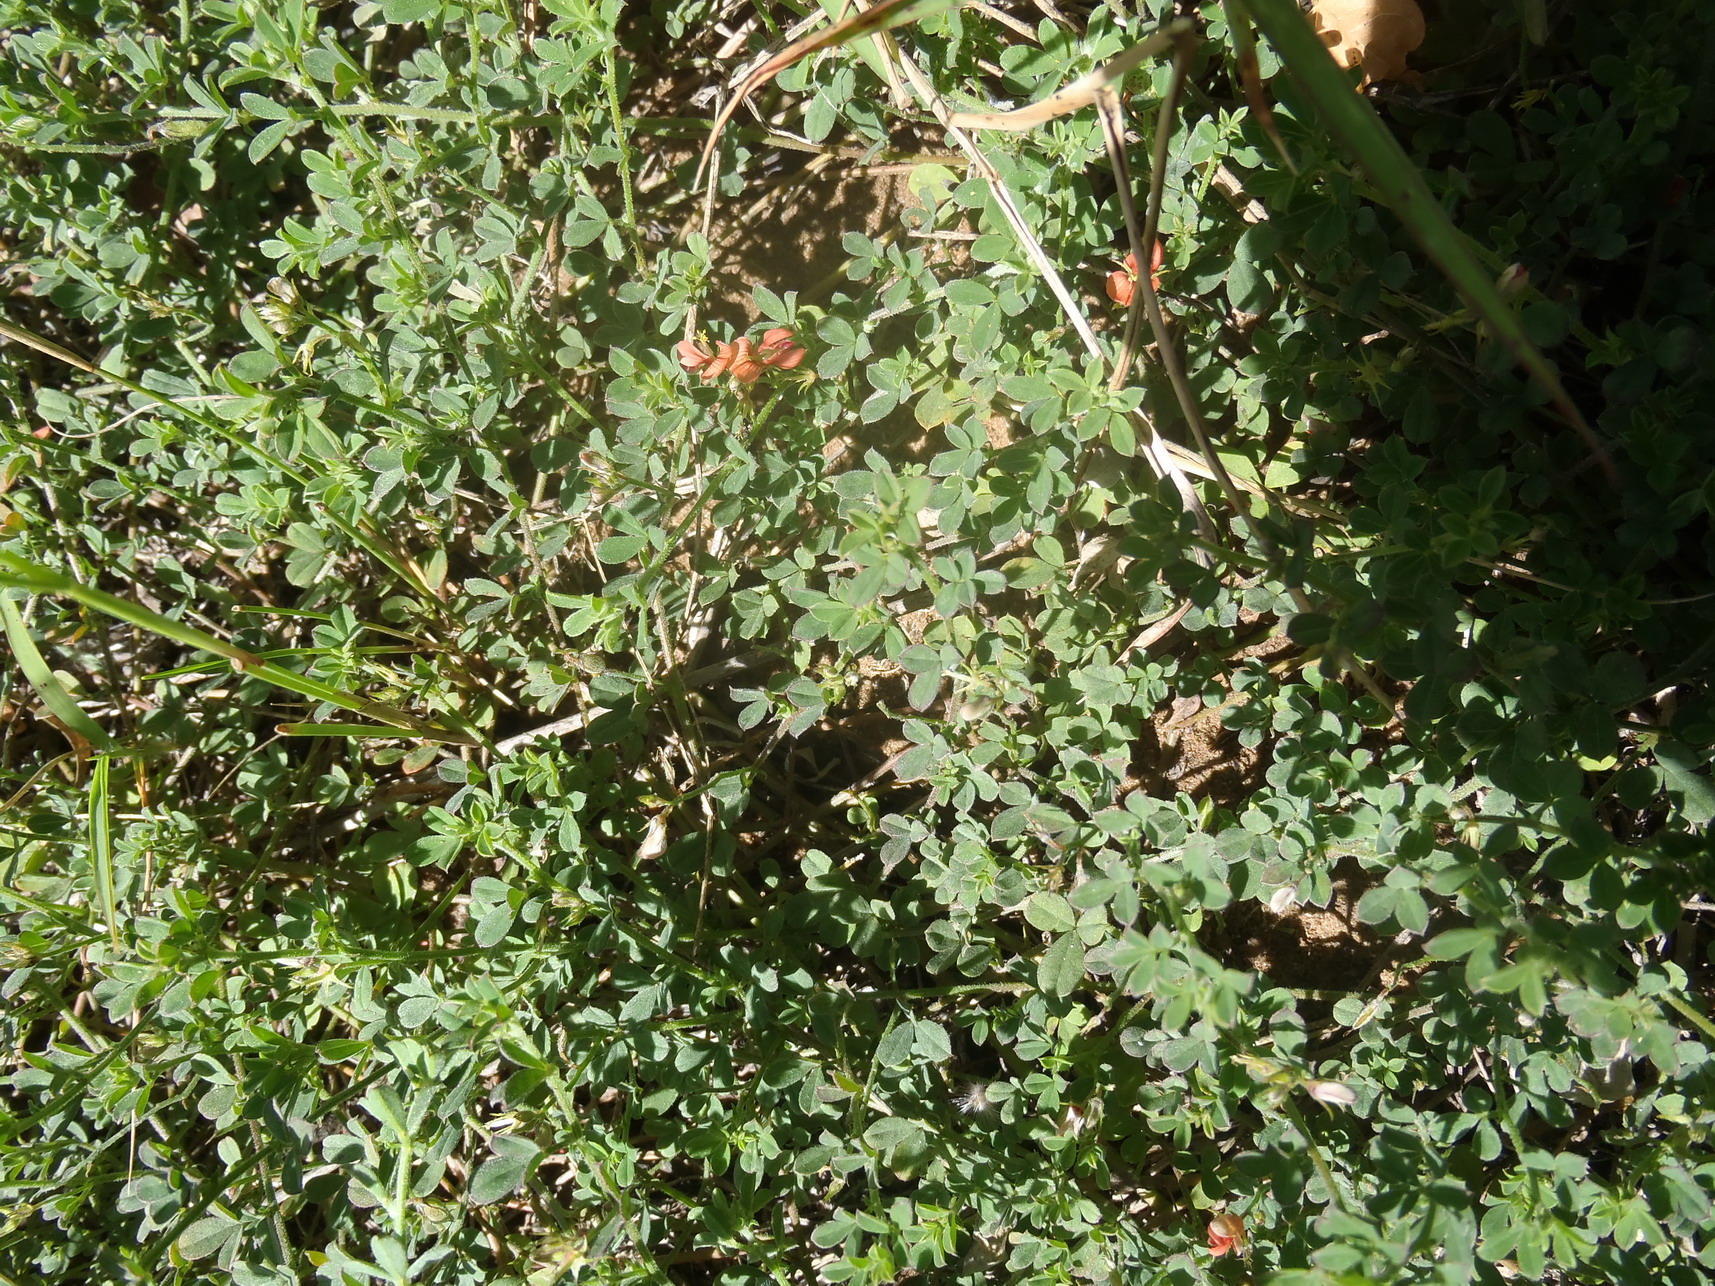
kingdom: Plantae
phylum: Tracheophyta
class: Magnoliopsida
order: Fabales
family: Fabaceae
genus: Indigofera
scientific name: Indigofera priorii
